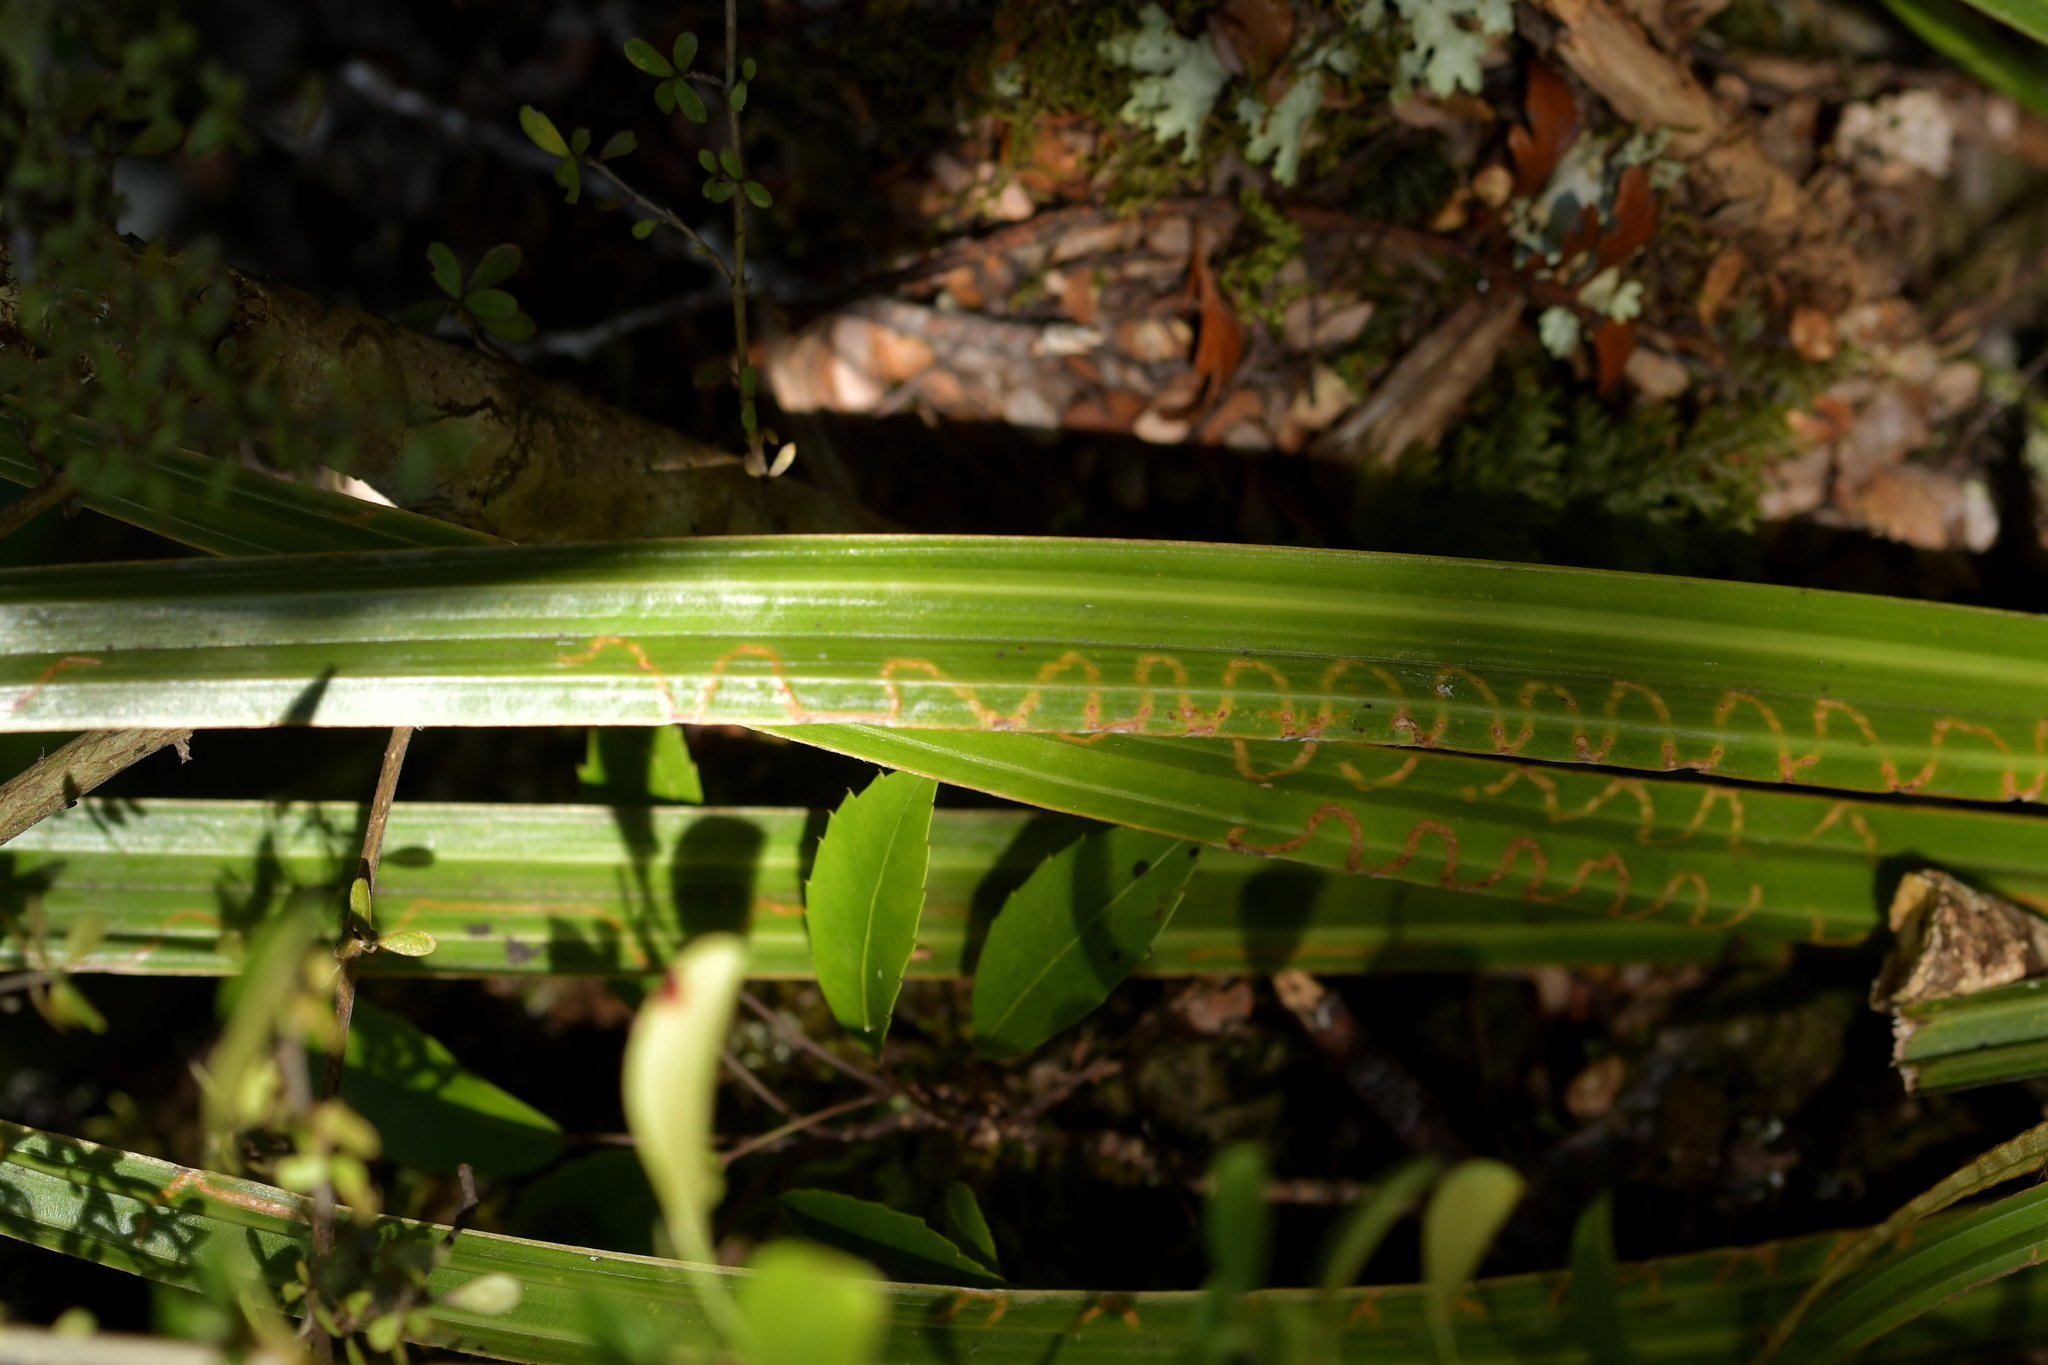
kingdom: Animalia
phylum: Arthropoda
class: Insecta
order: Lepidoptera
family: Plutellidae
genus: Charixena
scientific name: Charixena iridoxa
